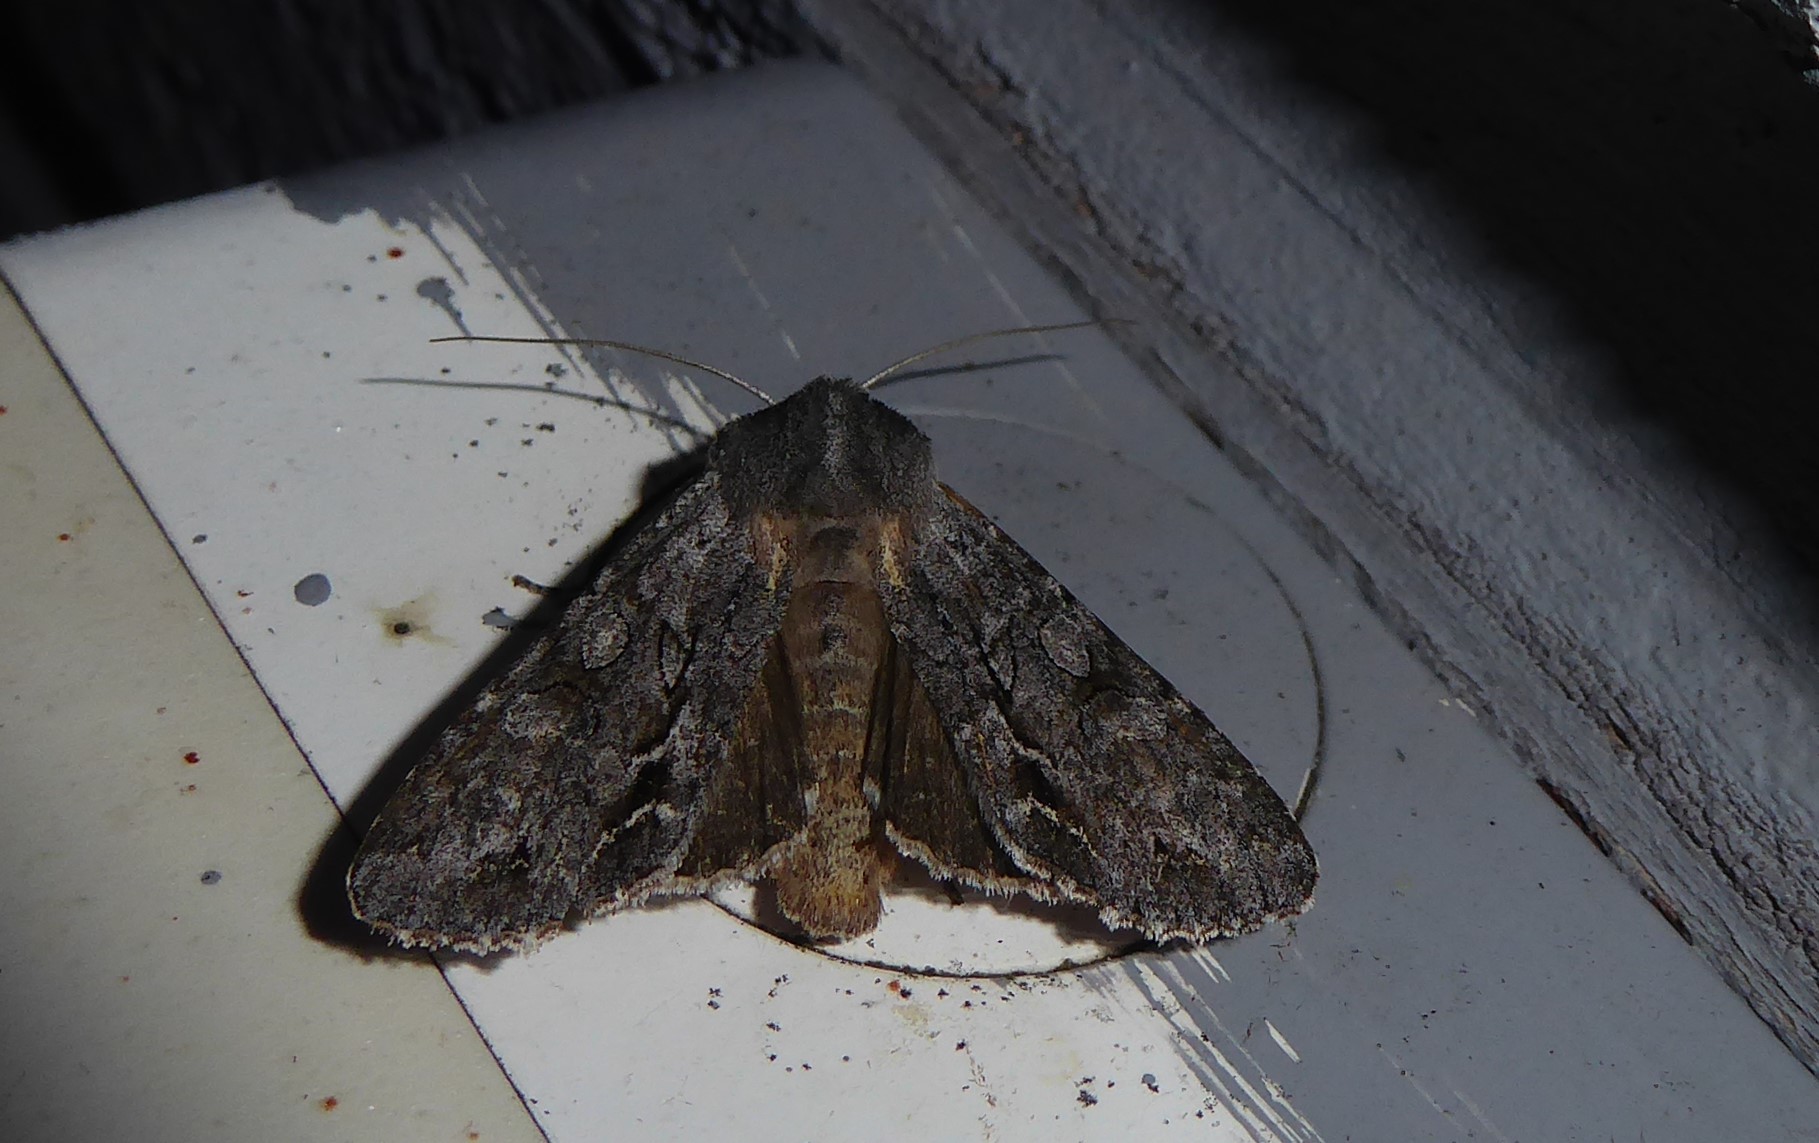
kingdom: Animalia
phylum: Arthropoda
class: Insecta
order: Lepidoptera
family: Noctuidae
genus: Ichneutica
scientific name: Ichneutica
